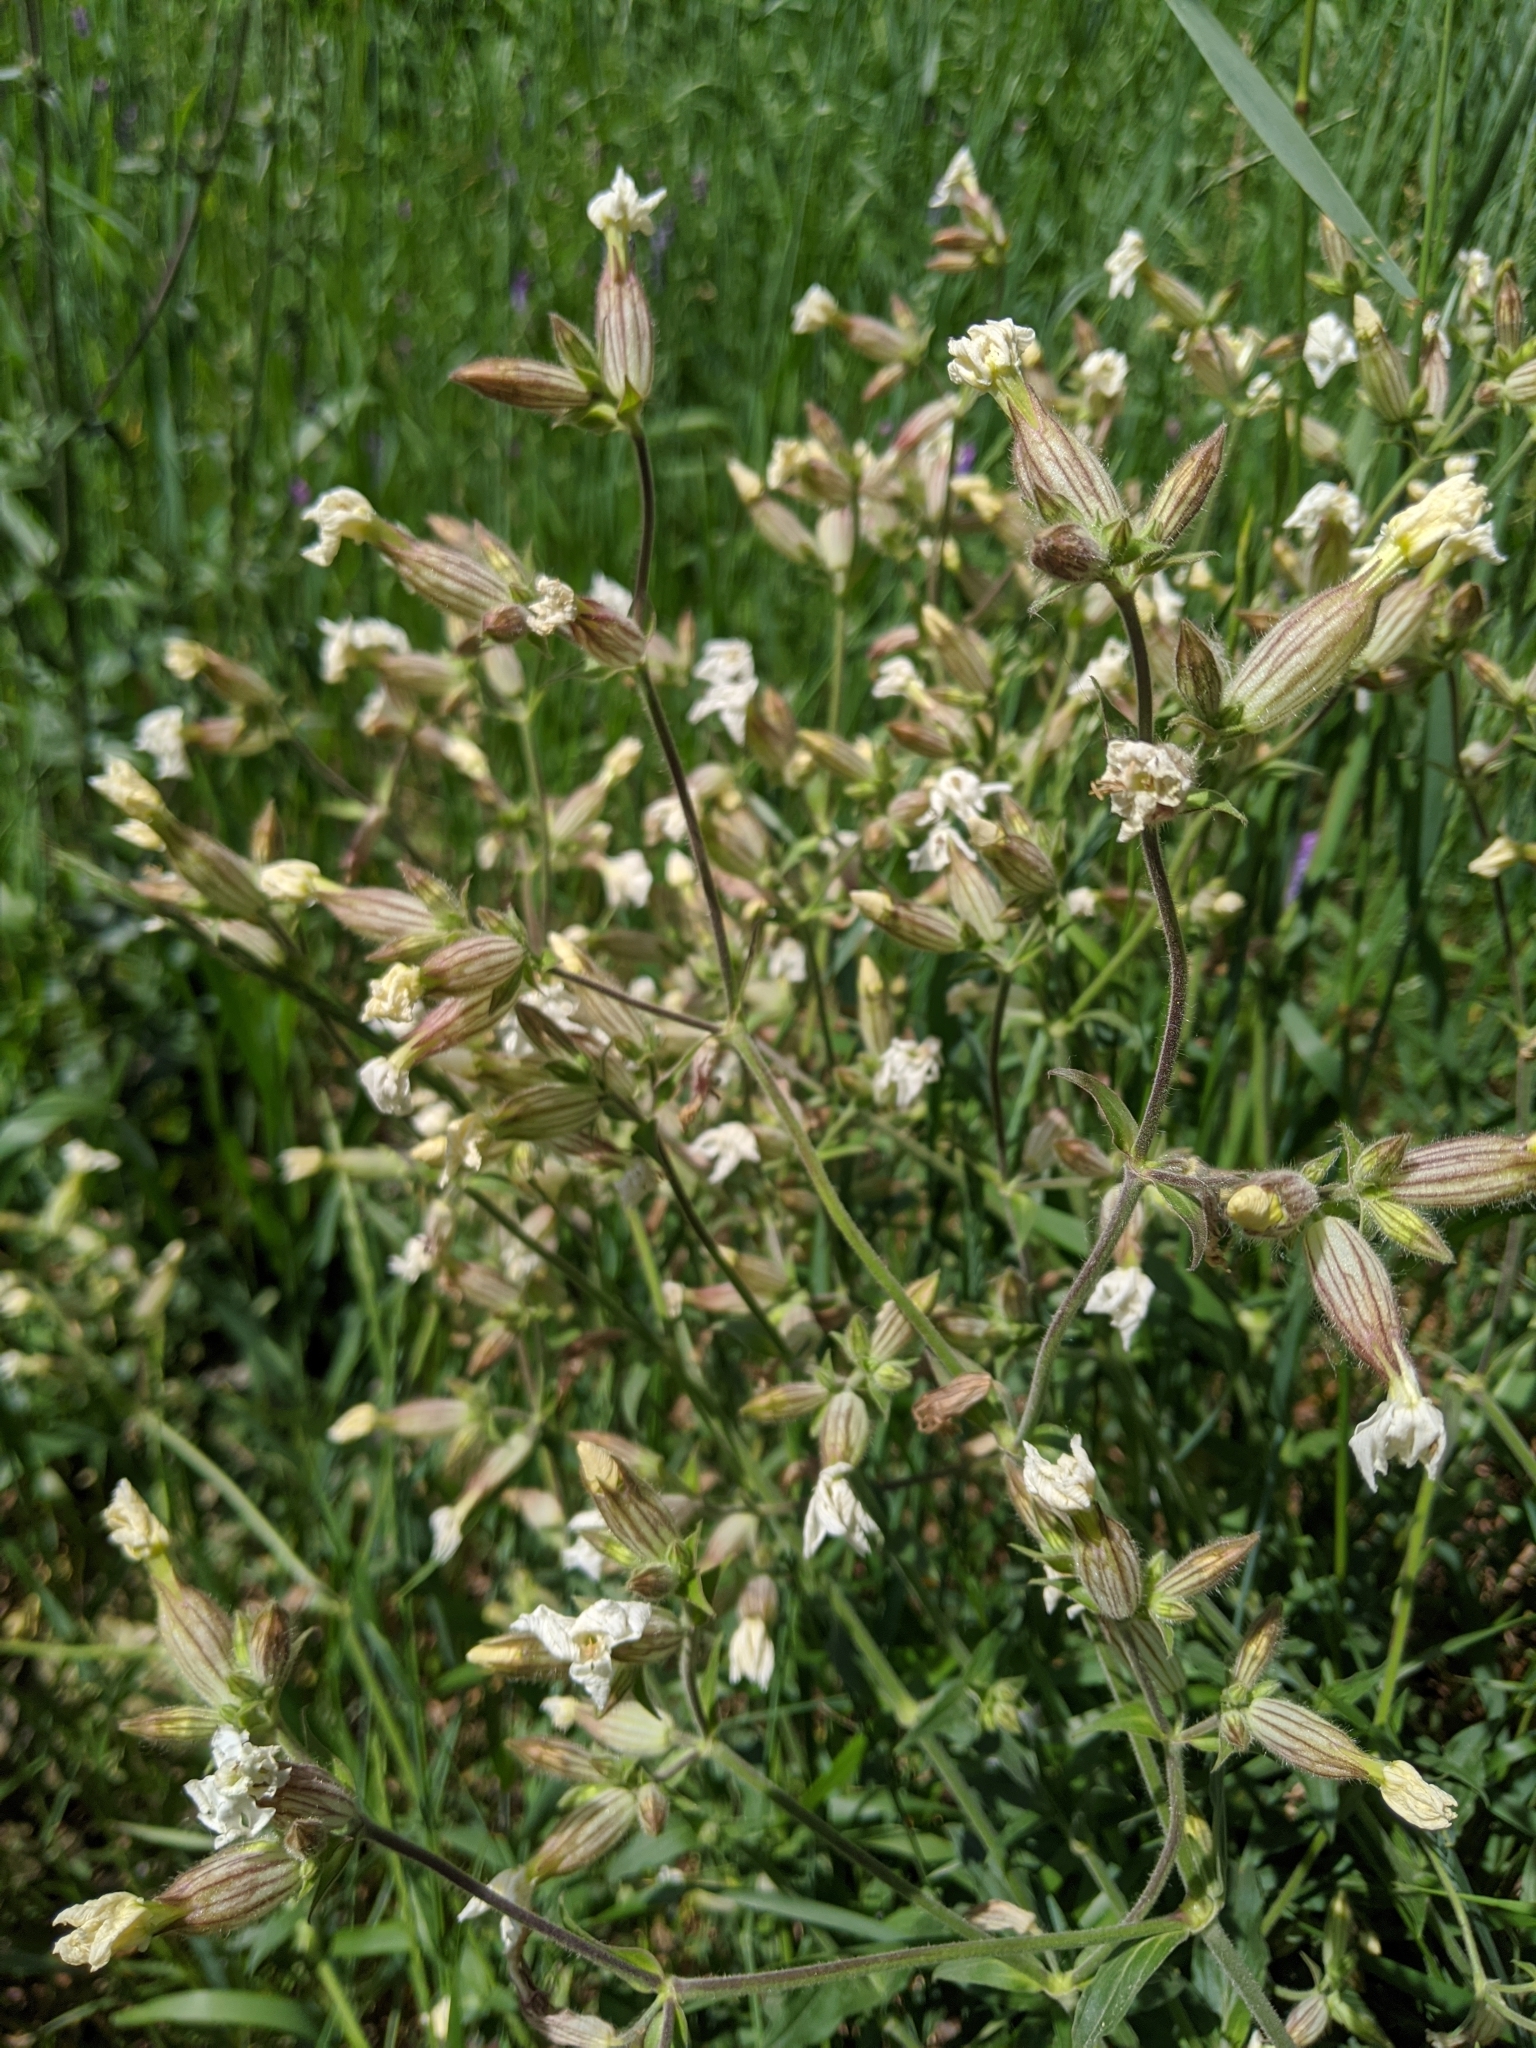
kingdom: Plantae
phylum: Tracheophyta
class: Magnoliopsida
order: Caryophyllales
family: Caryophyllaceae
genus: Silene
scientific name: Silene latifolia
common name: White campion
